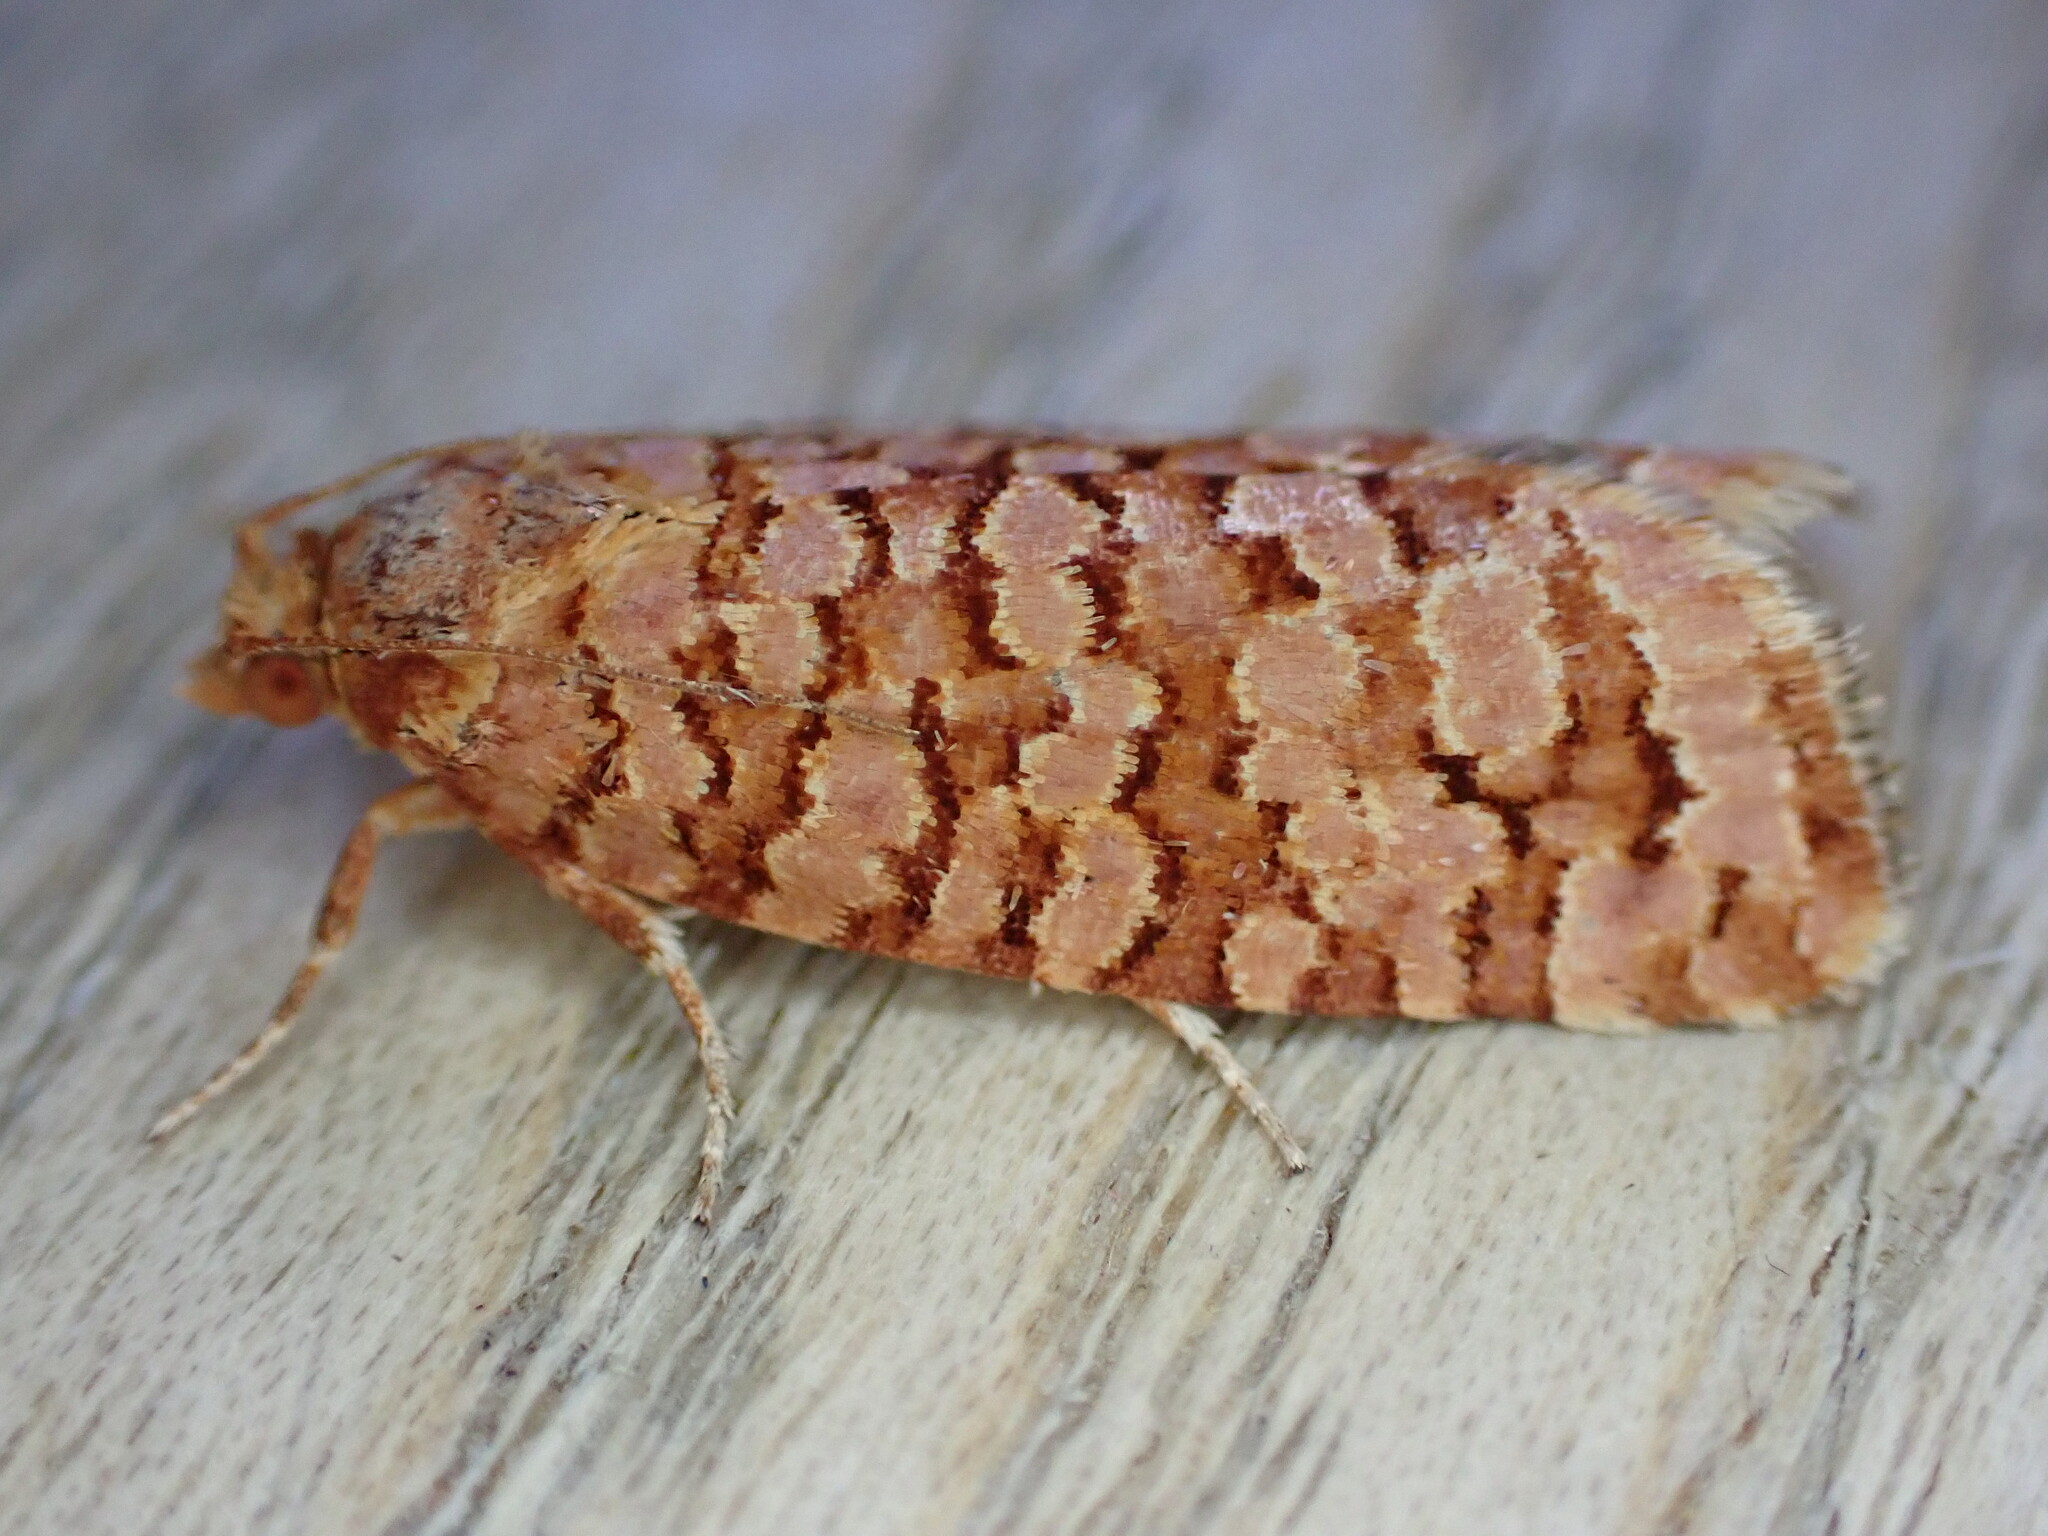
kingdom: Animalia
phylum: Arthropoda
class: Insecta
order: Lepidoptera
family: Tortricidae
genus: Lozotaeniodes
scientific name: Lozotaeniodes formosana
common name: Orange pine twist
